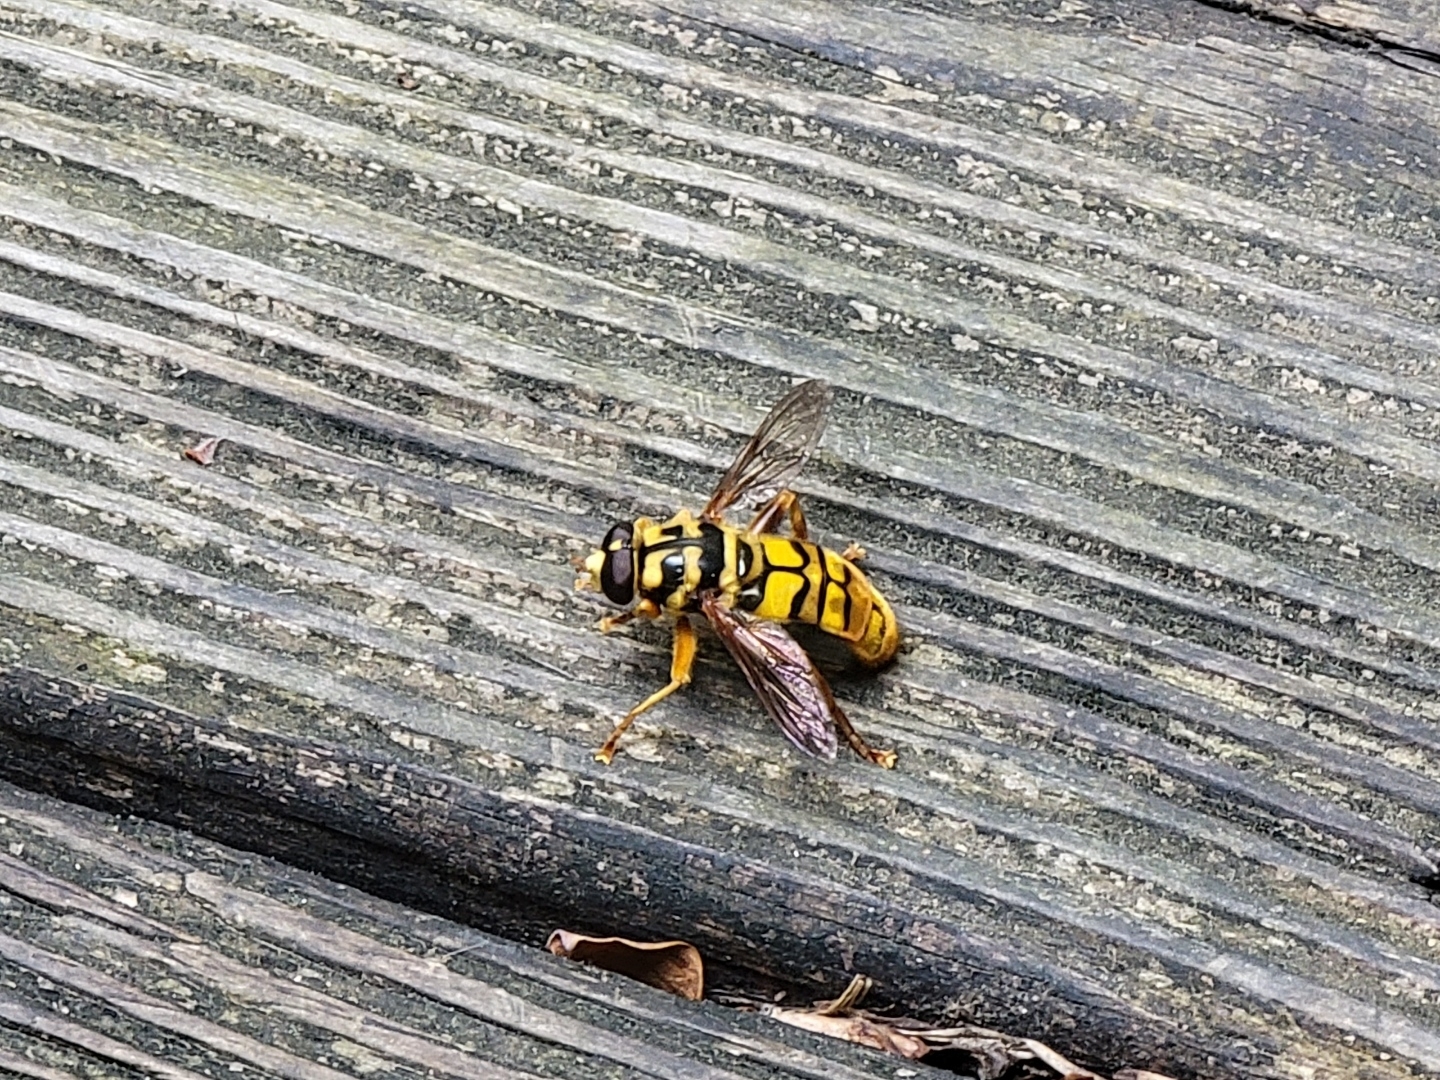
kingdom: Animalia
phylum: Arthropoda
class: Insecta
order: Diptera
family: Syrphidae
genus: Milesia
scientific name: Milesia virginiensis
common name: Virginia giant
